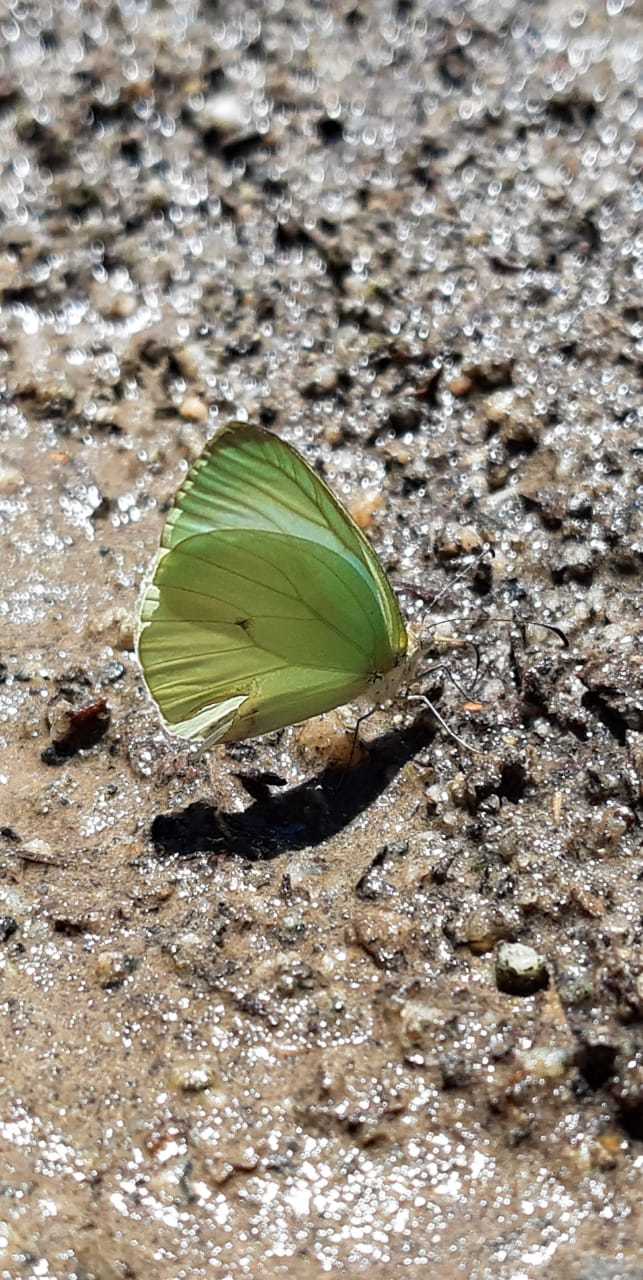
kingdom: Animalia
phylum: Arthropoda
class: Insecta
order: Lepidoptera
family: Pieridae
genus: Pseudopieris
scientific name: Pseudopieris nehemia
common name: Clean mimic-white
